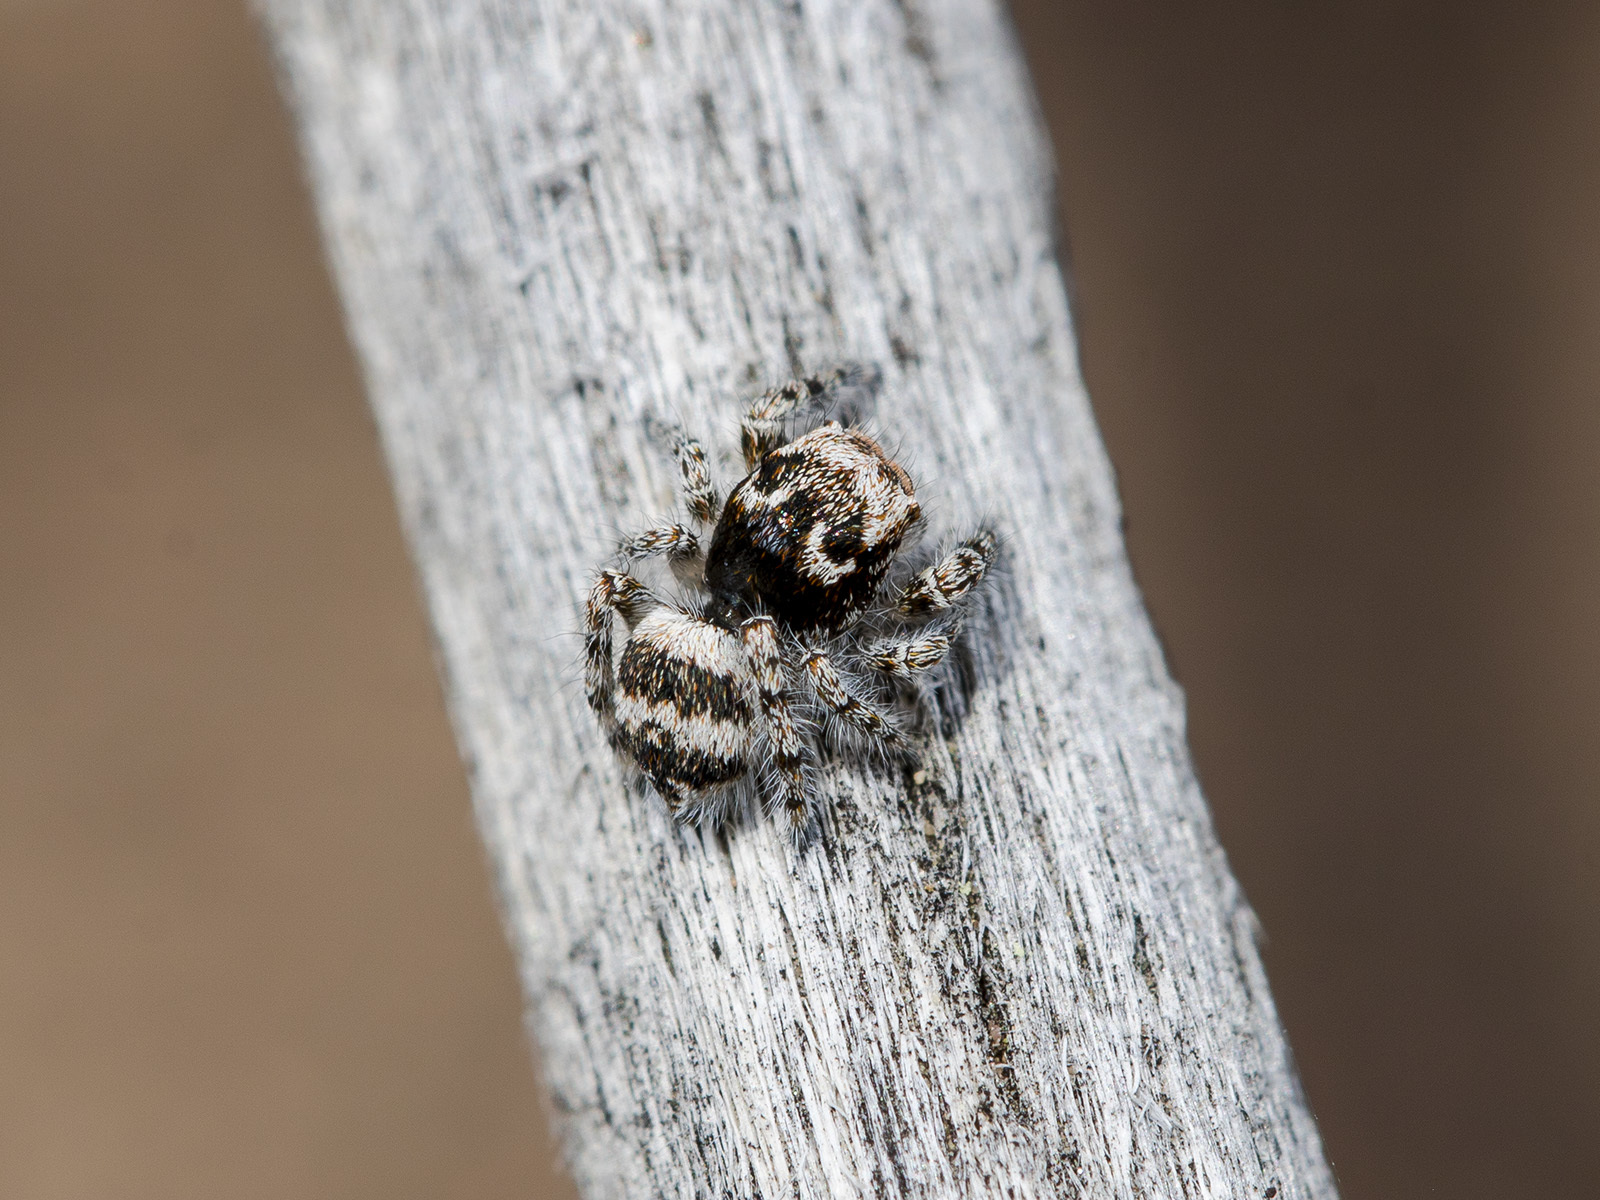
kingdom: Animalia
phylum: Arthropoda
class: Arachnida
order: Araneae
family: Salticidae
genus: Pseudomogrus
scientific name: Pseudomogrus albocinctus
